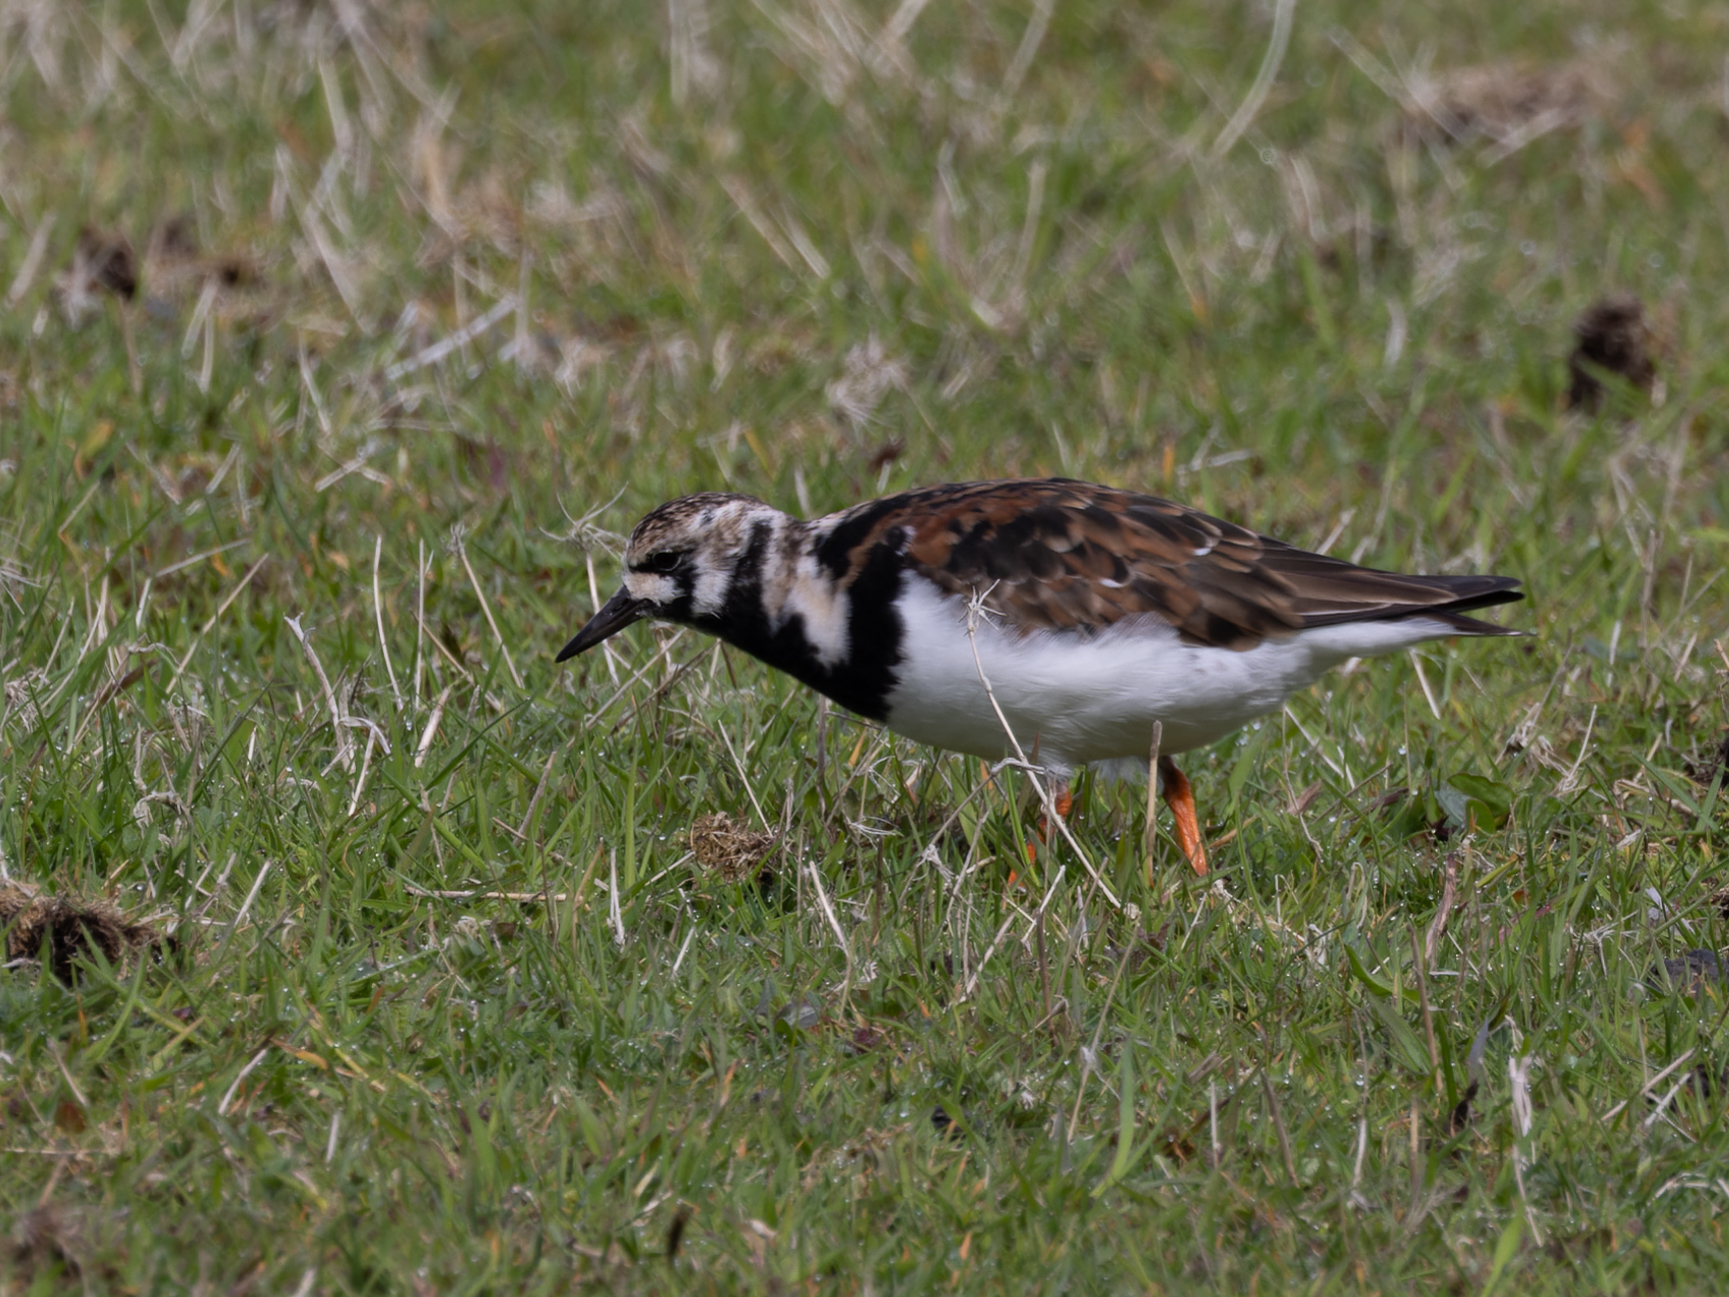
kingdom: Animalia
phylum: Chordata
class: Aves
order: Charadriiformes
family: Scolopacidae
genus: Arenaria
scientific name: Arenaria interpres
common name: Ruddy turnstone
